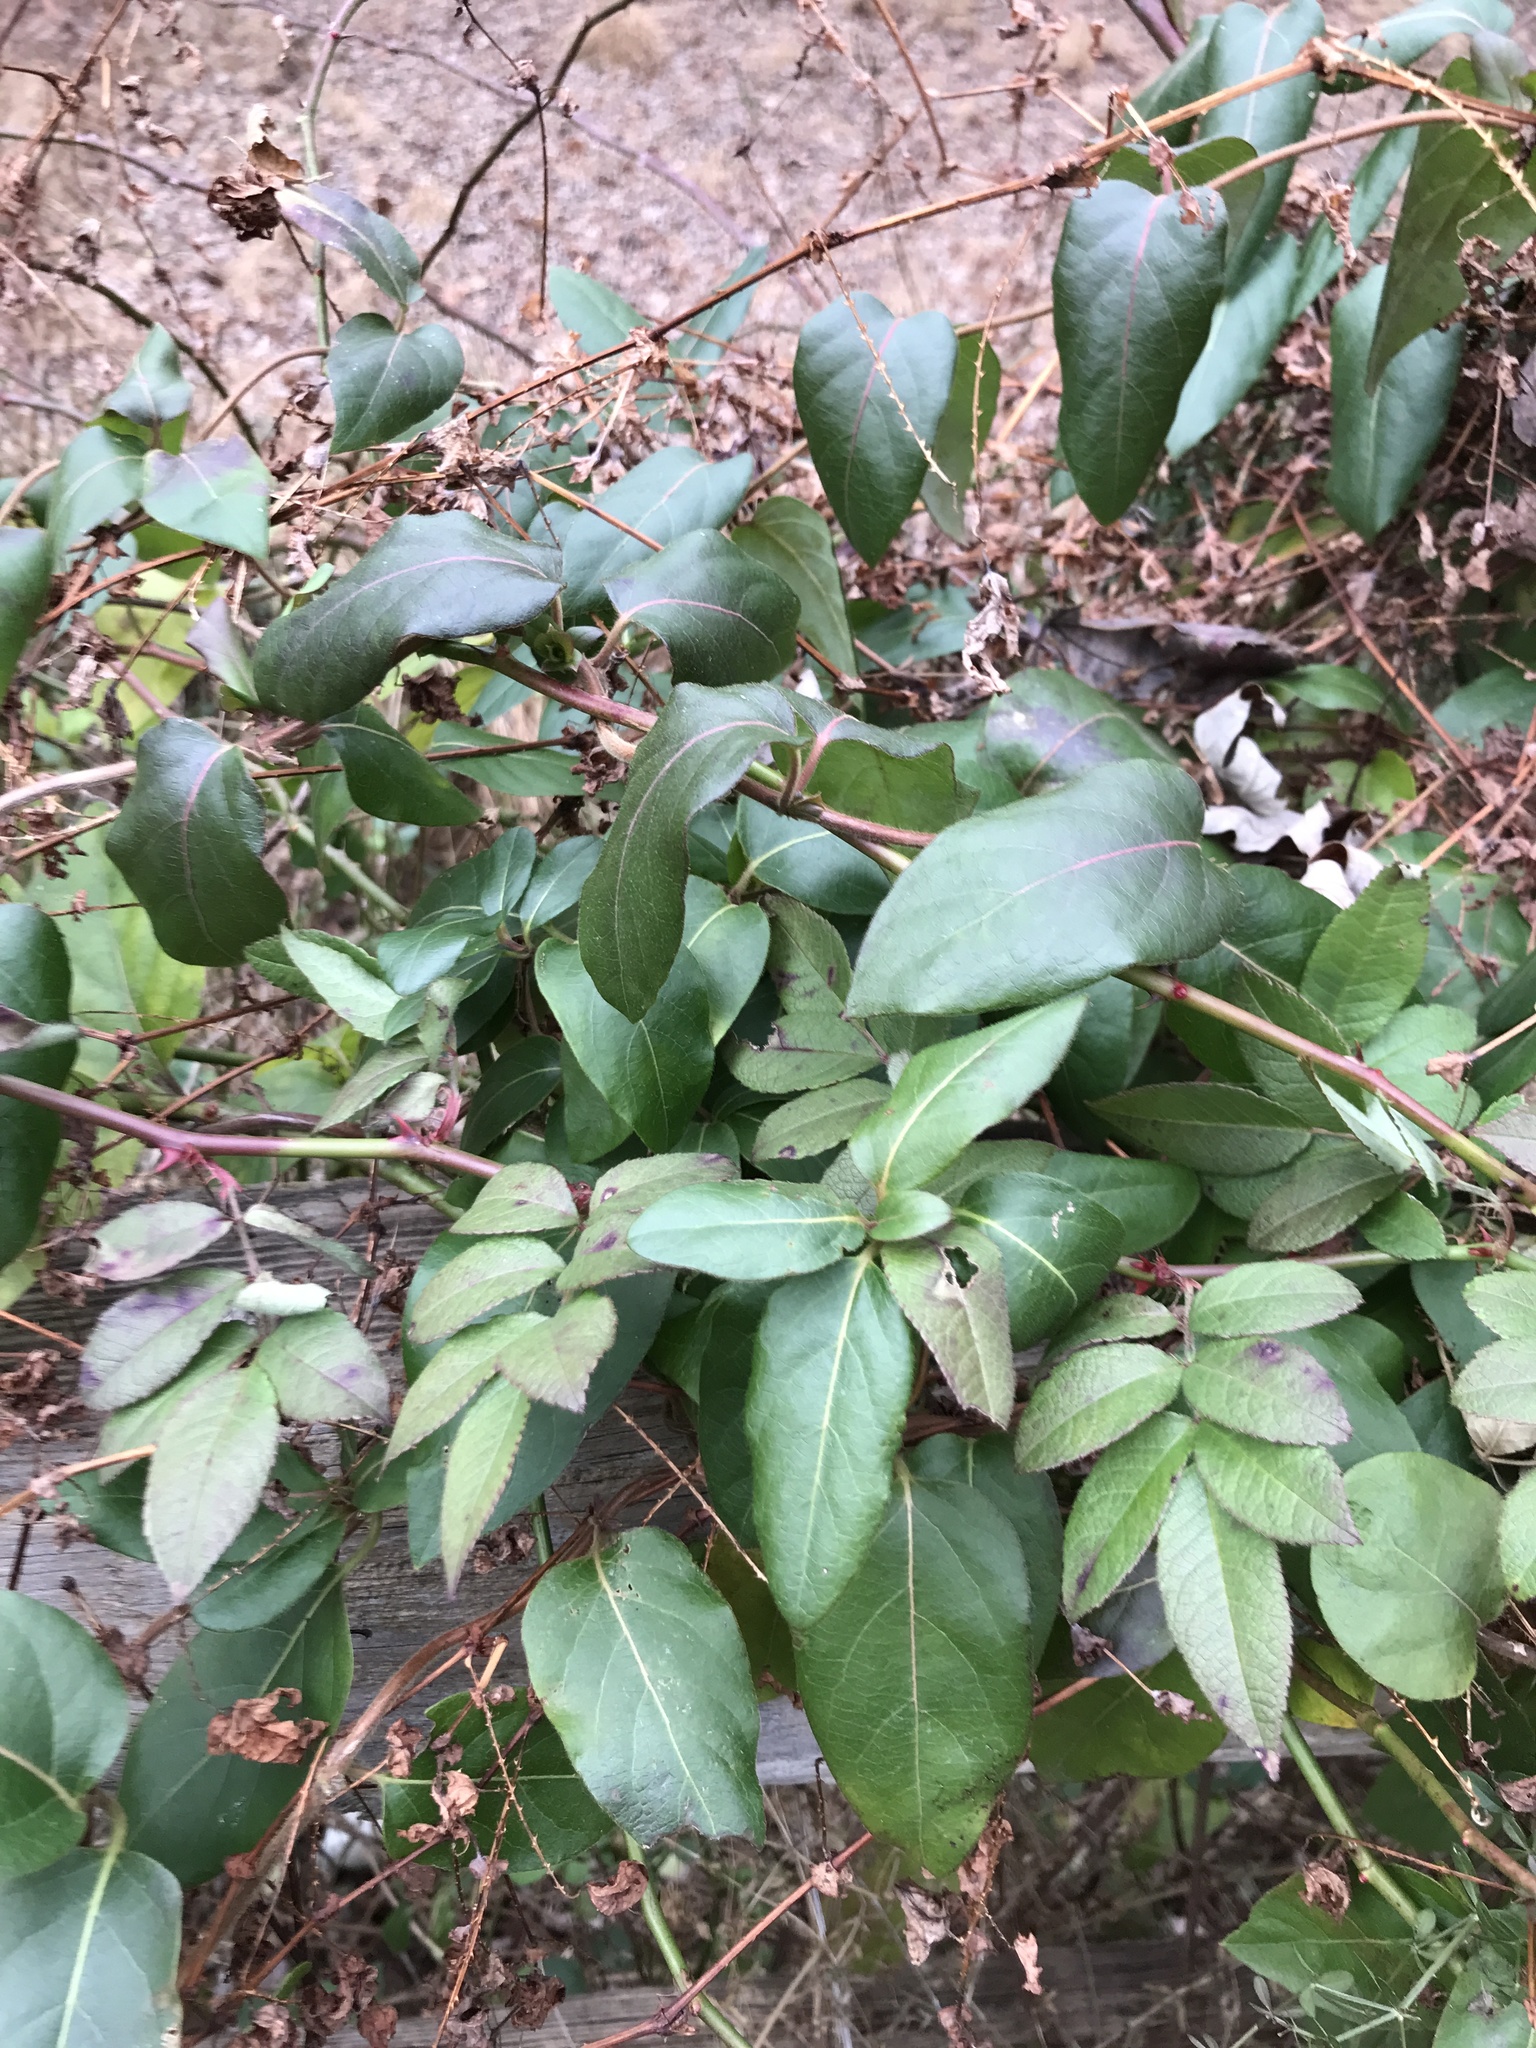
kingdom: Plantae
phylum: Tracheophyta
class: Magnoliopsida
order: Dipsacales
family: Caprifoliaceae
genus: Lonicera
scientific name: Lonicera japonica
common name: Japanese honeysuckle
